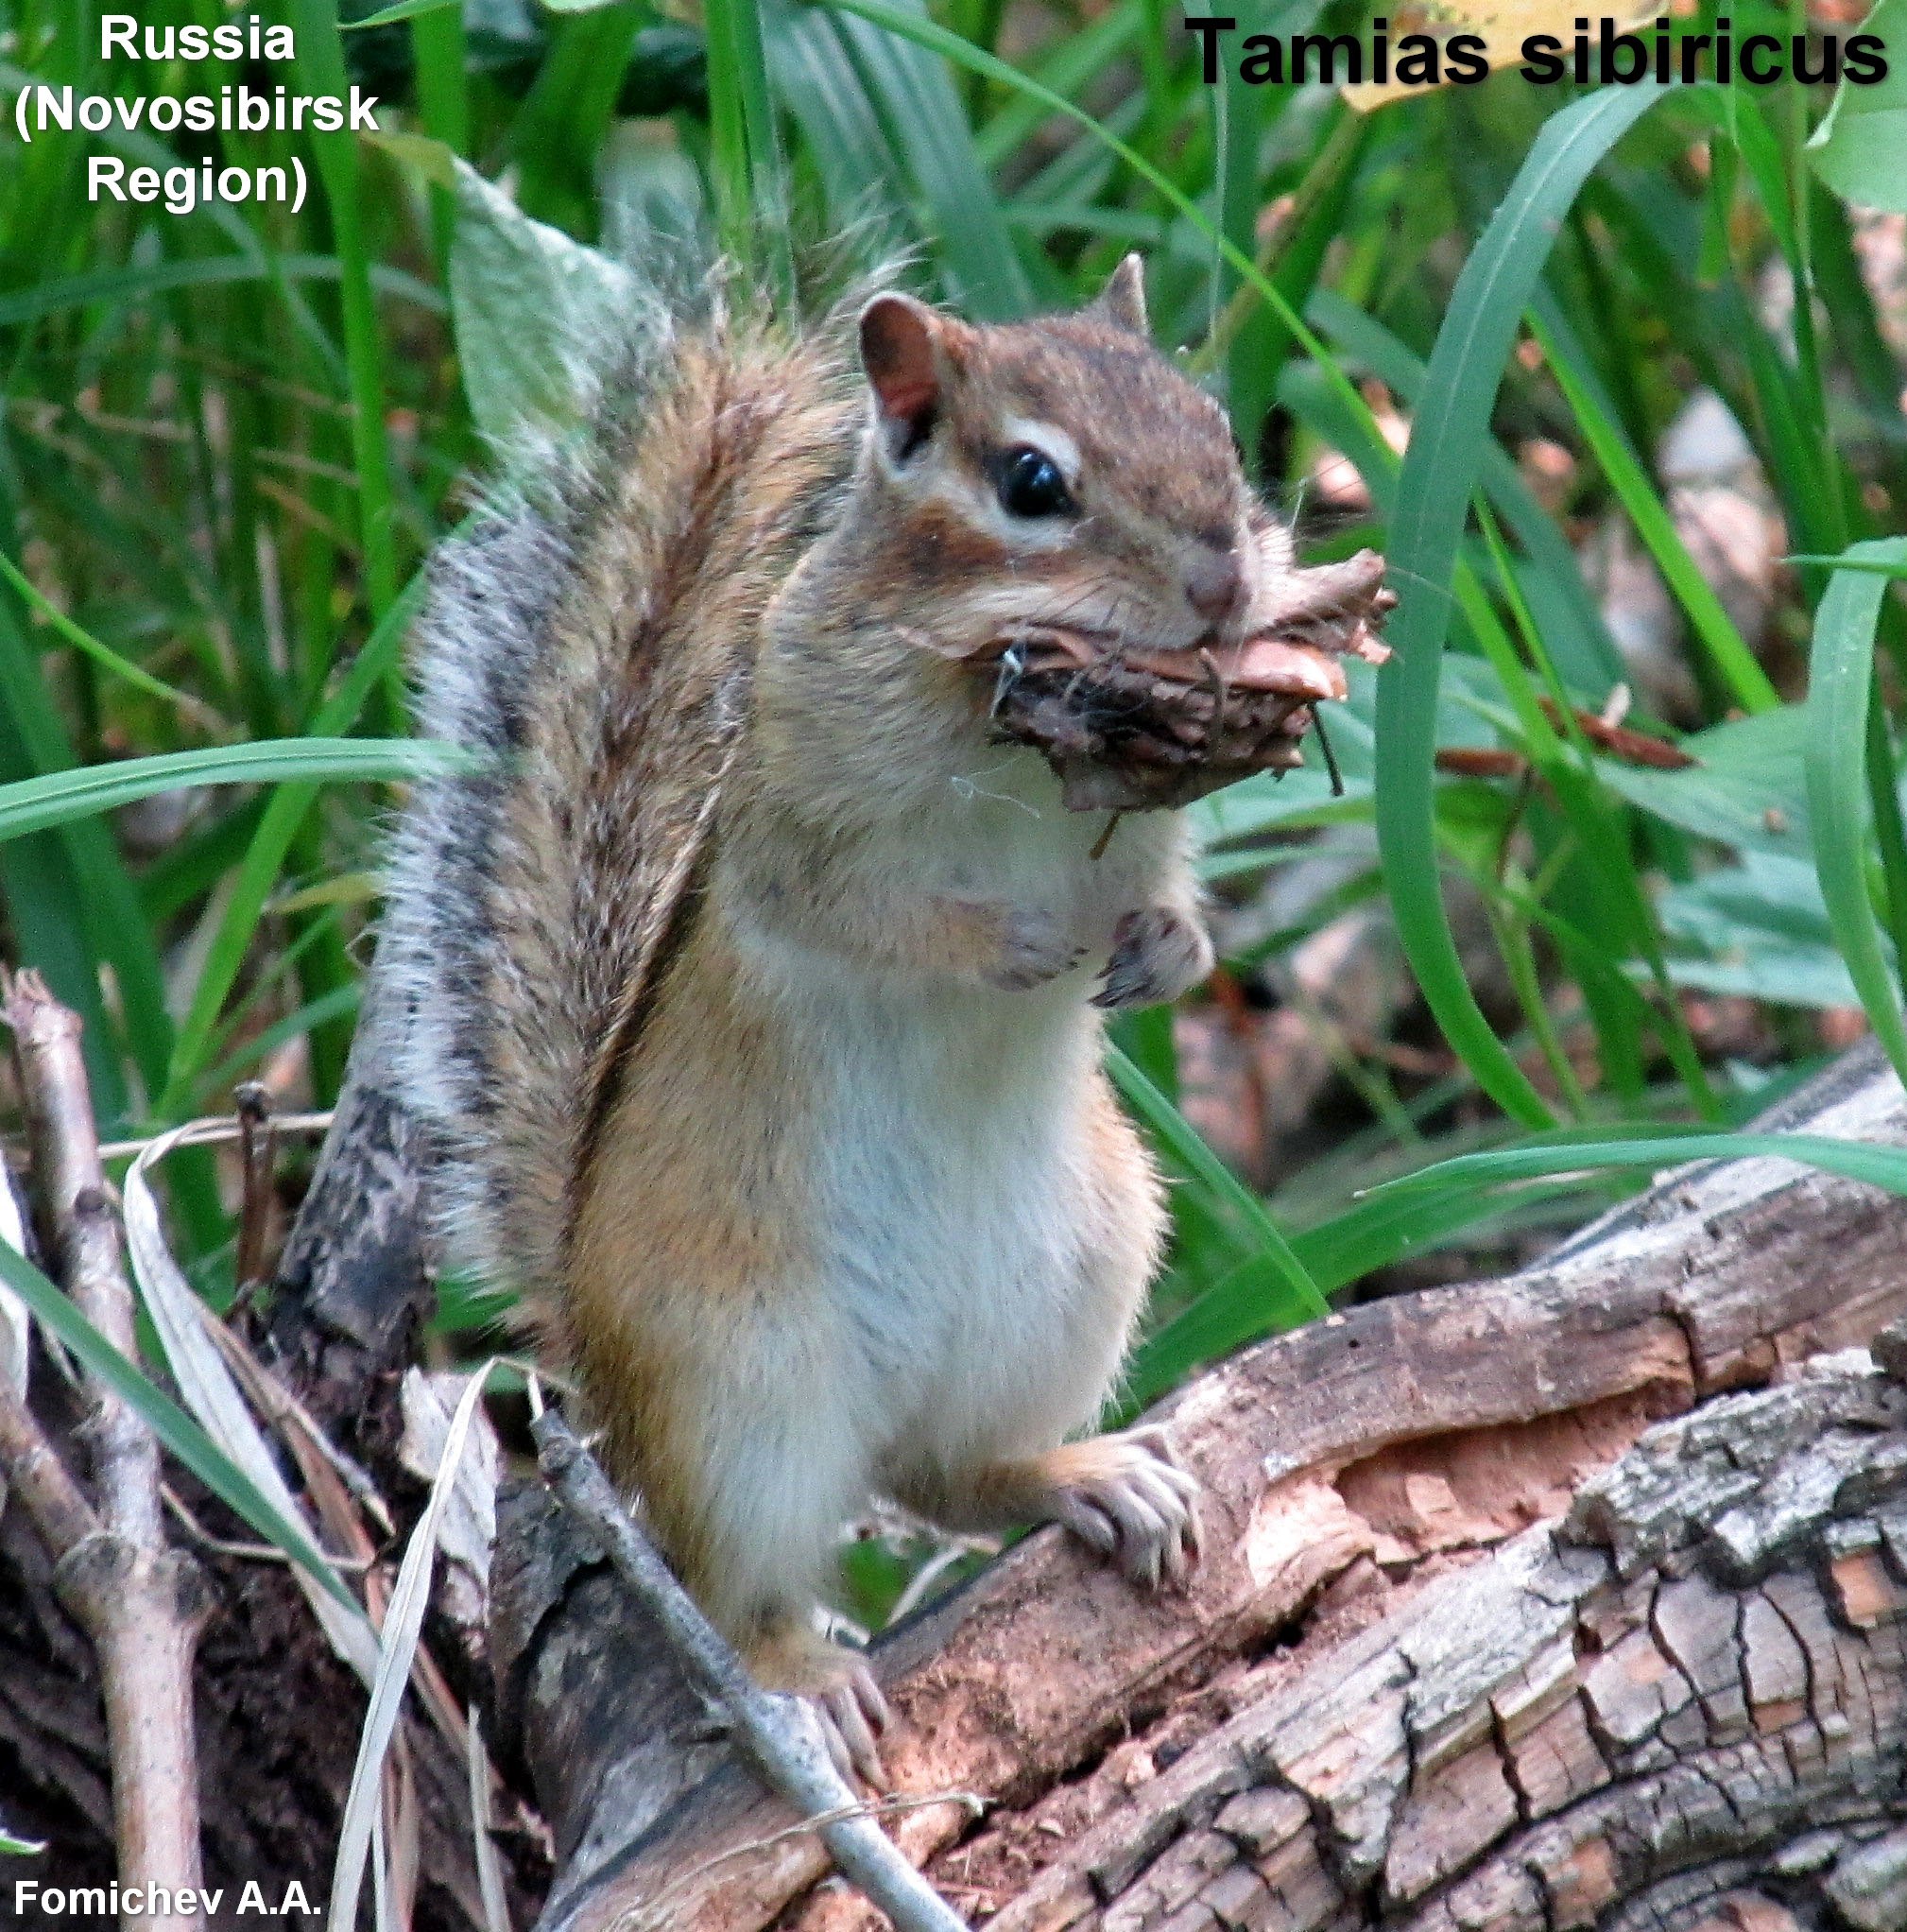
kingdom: Animalia
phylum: Chordata
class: Mammalia
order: Rodentia
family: Sciuridae
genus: Tamias
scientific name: Tamias sibiricus
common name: Siberian chipmunk
